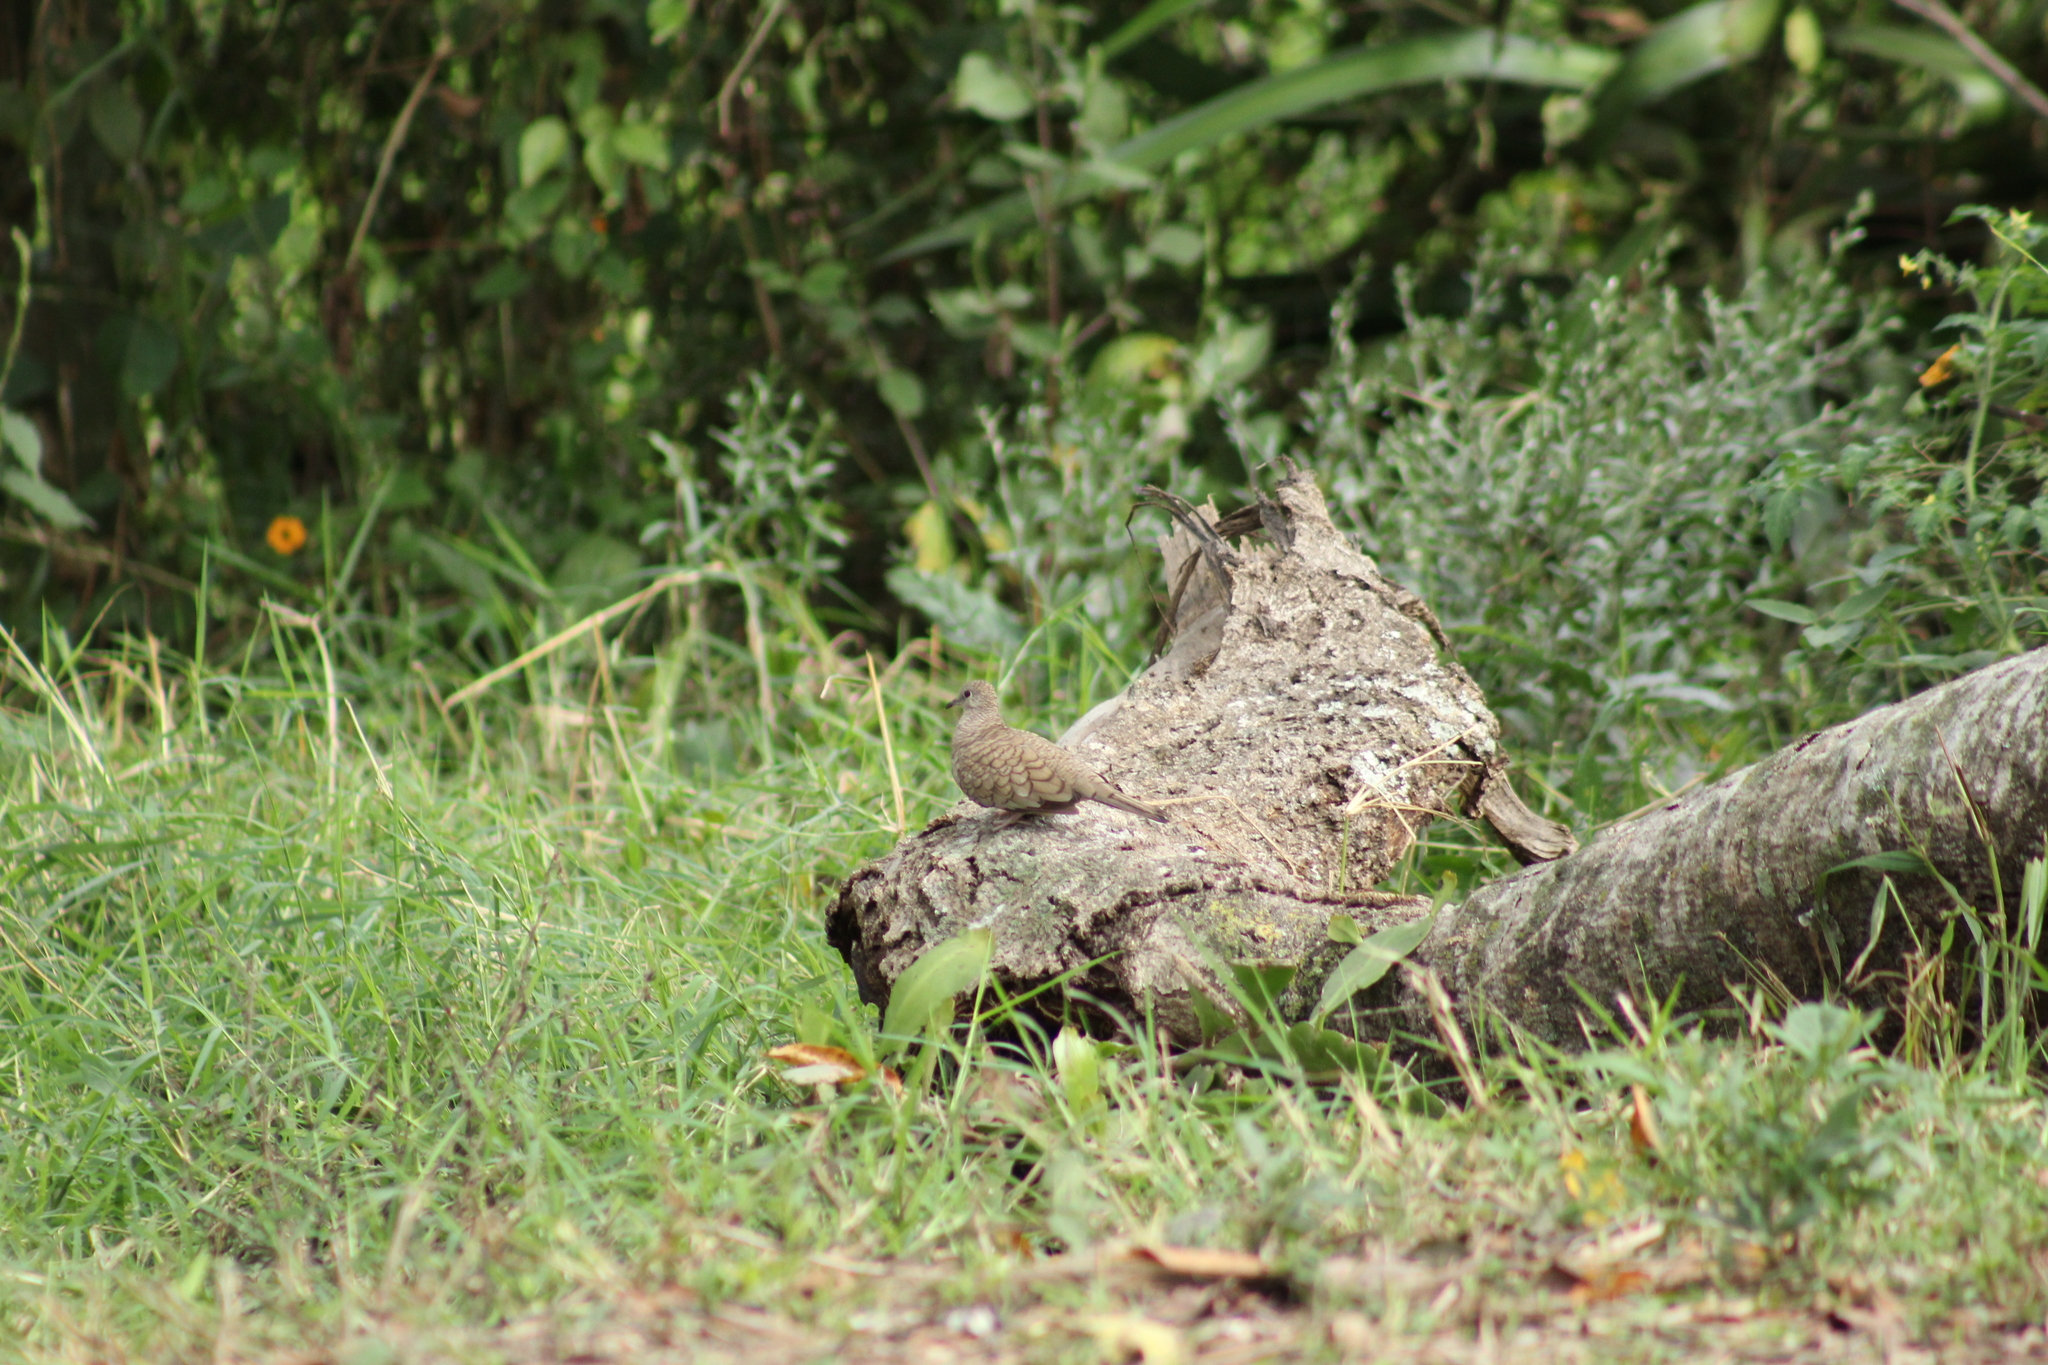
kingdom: Animalia
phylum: Chordata
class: Aves
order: Columbiformes
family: Columbidae
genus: Columbina
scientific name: Columbina inca
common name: Inca dove
